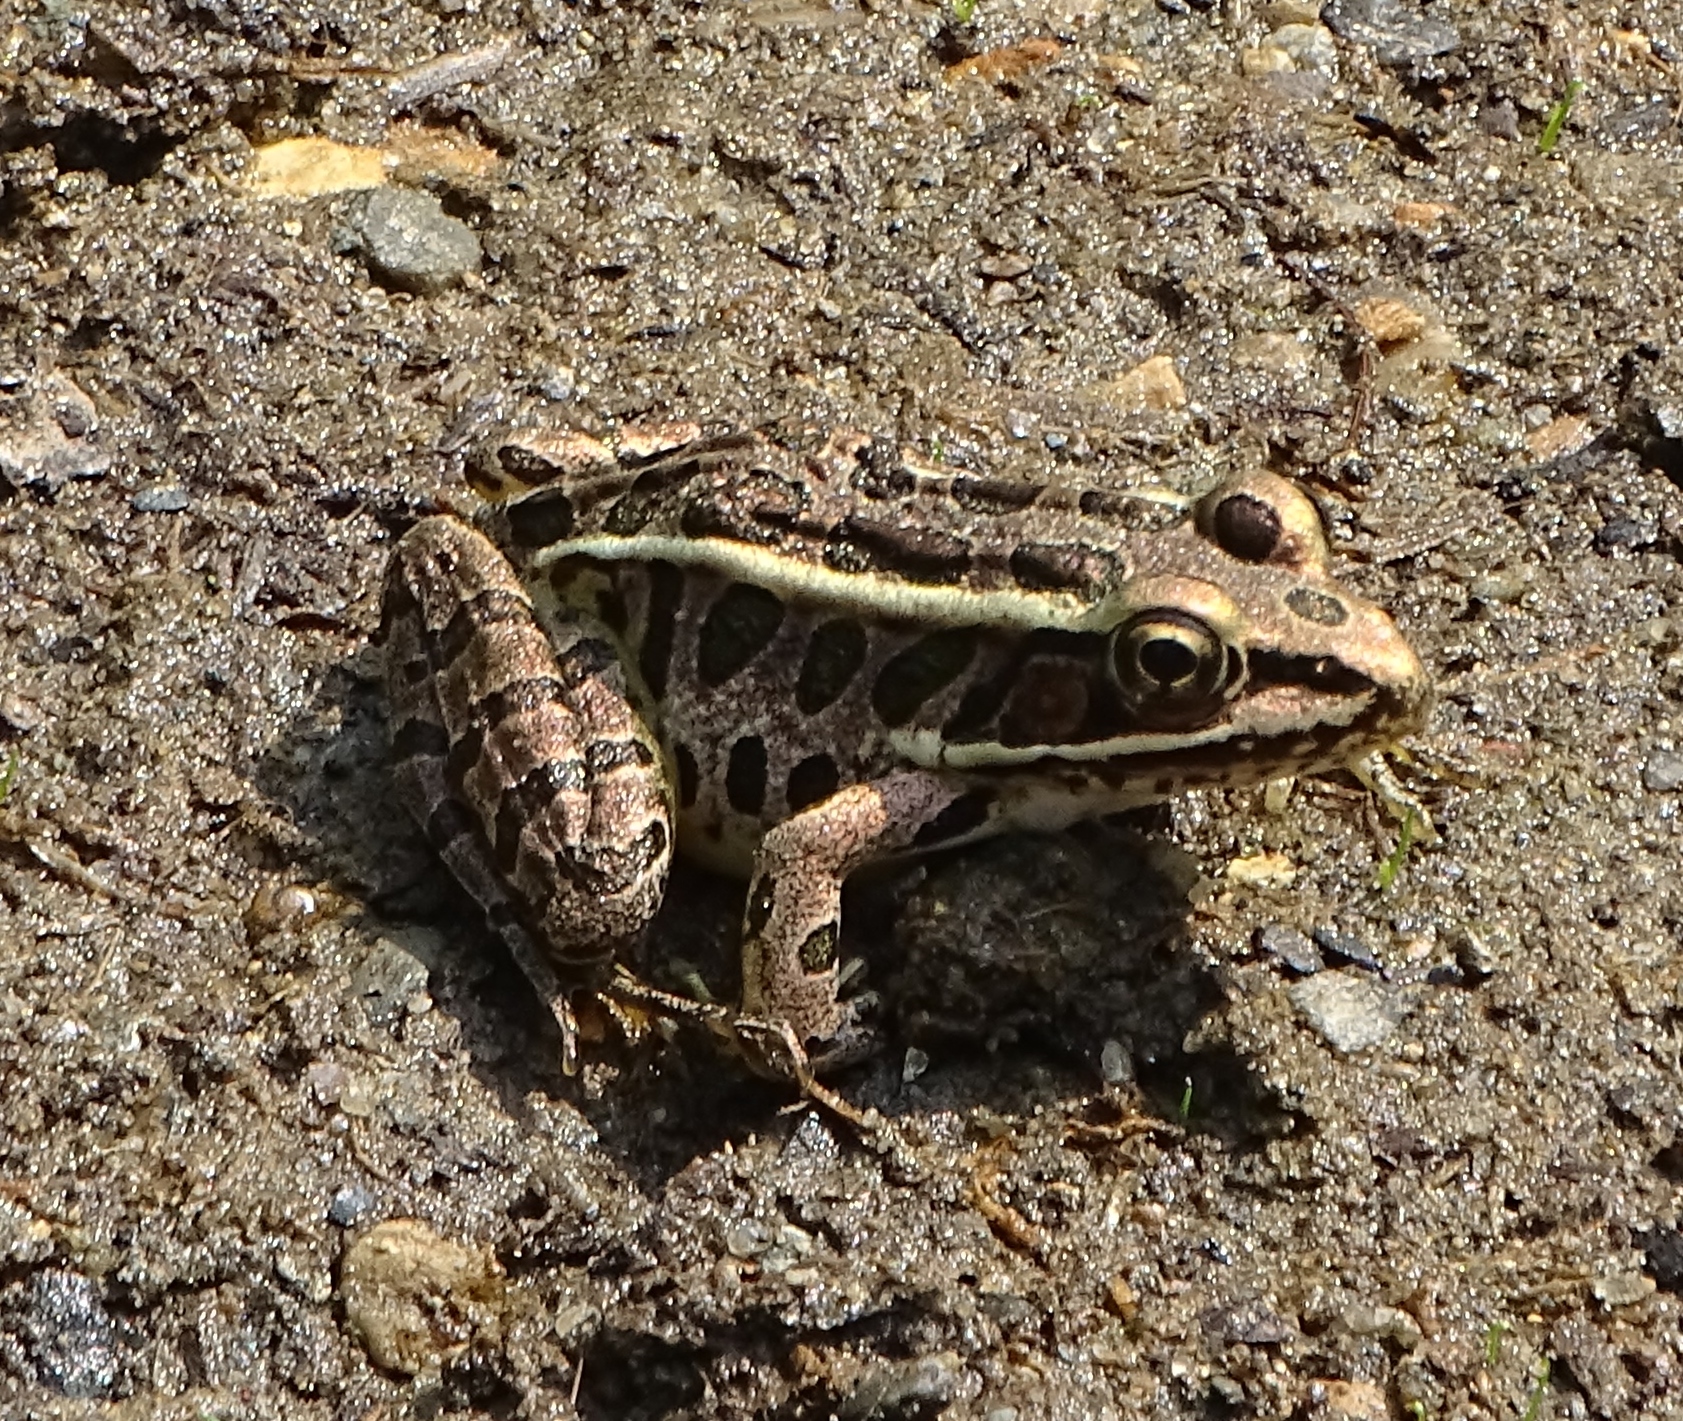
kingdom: Animalia
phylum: Chordata
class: Amphibia
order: Anura
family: Ranidae
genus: Lithobates
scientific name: Lithobates pipiens
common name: Northern leopard frog
